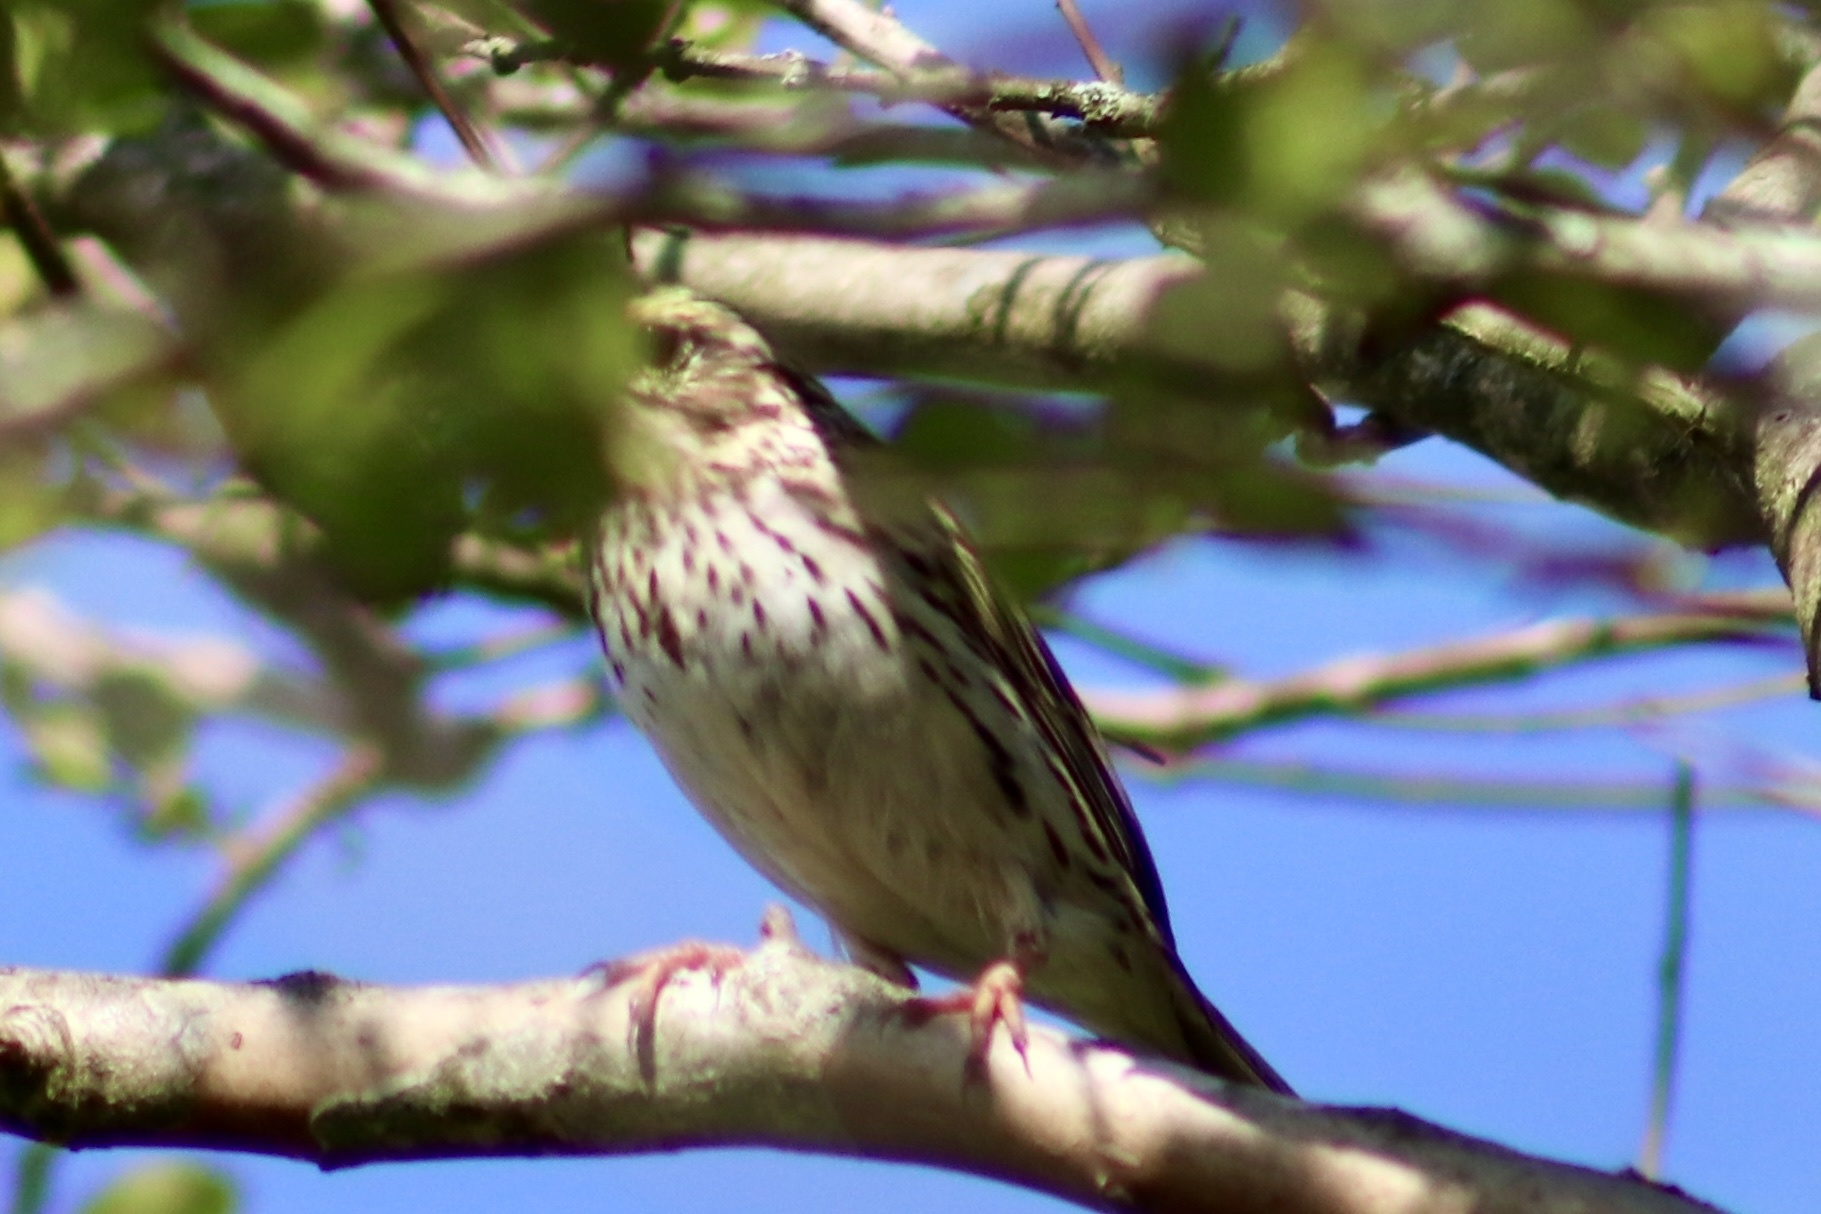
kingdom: Animalia
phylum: Chordata
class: Aves
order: Passeriformes
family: Passerellidae
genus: Passerculus
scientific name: Passerculus sandwichensis
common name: Savannah sparrow
